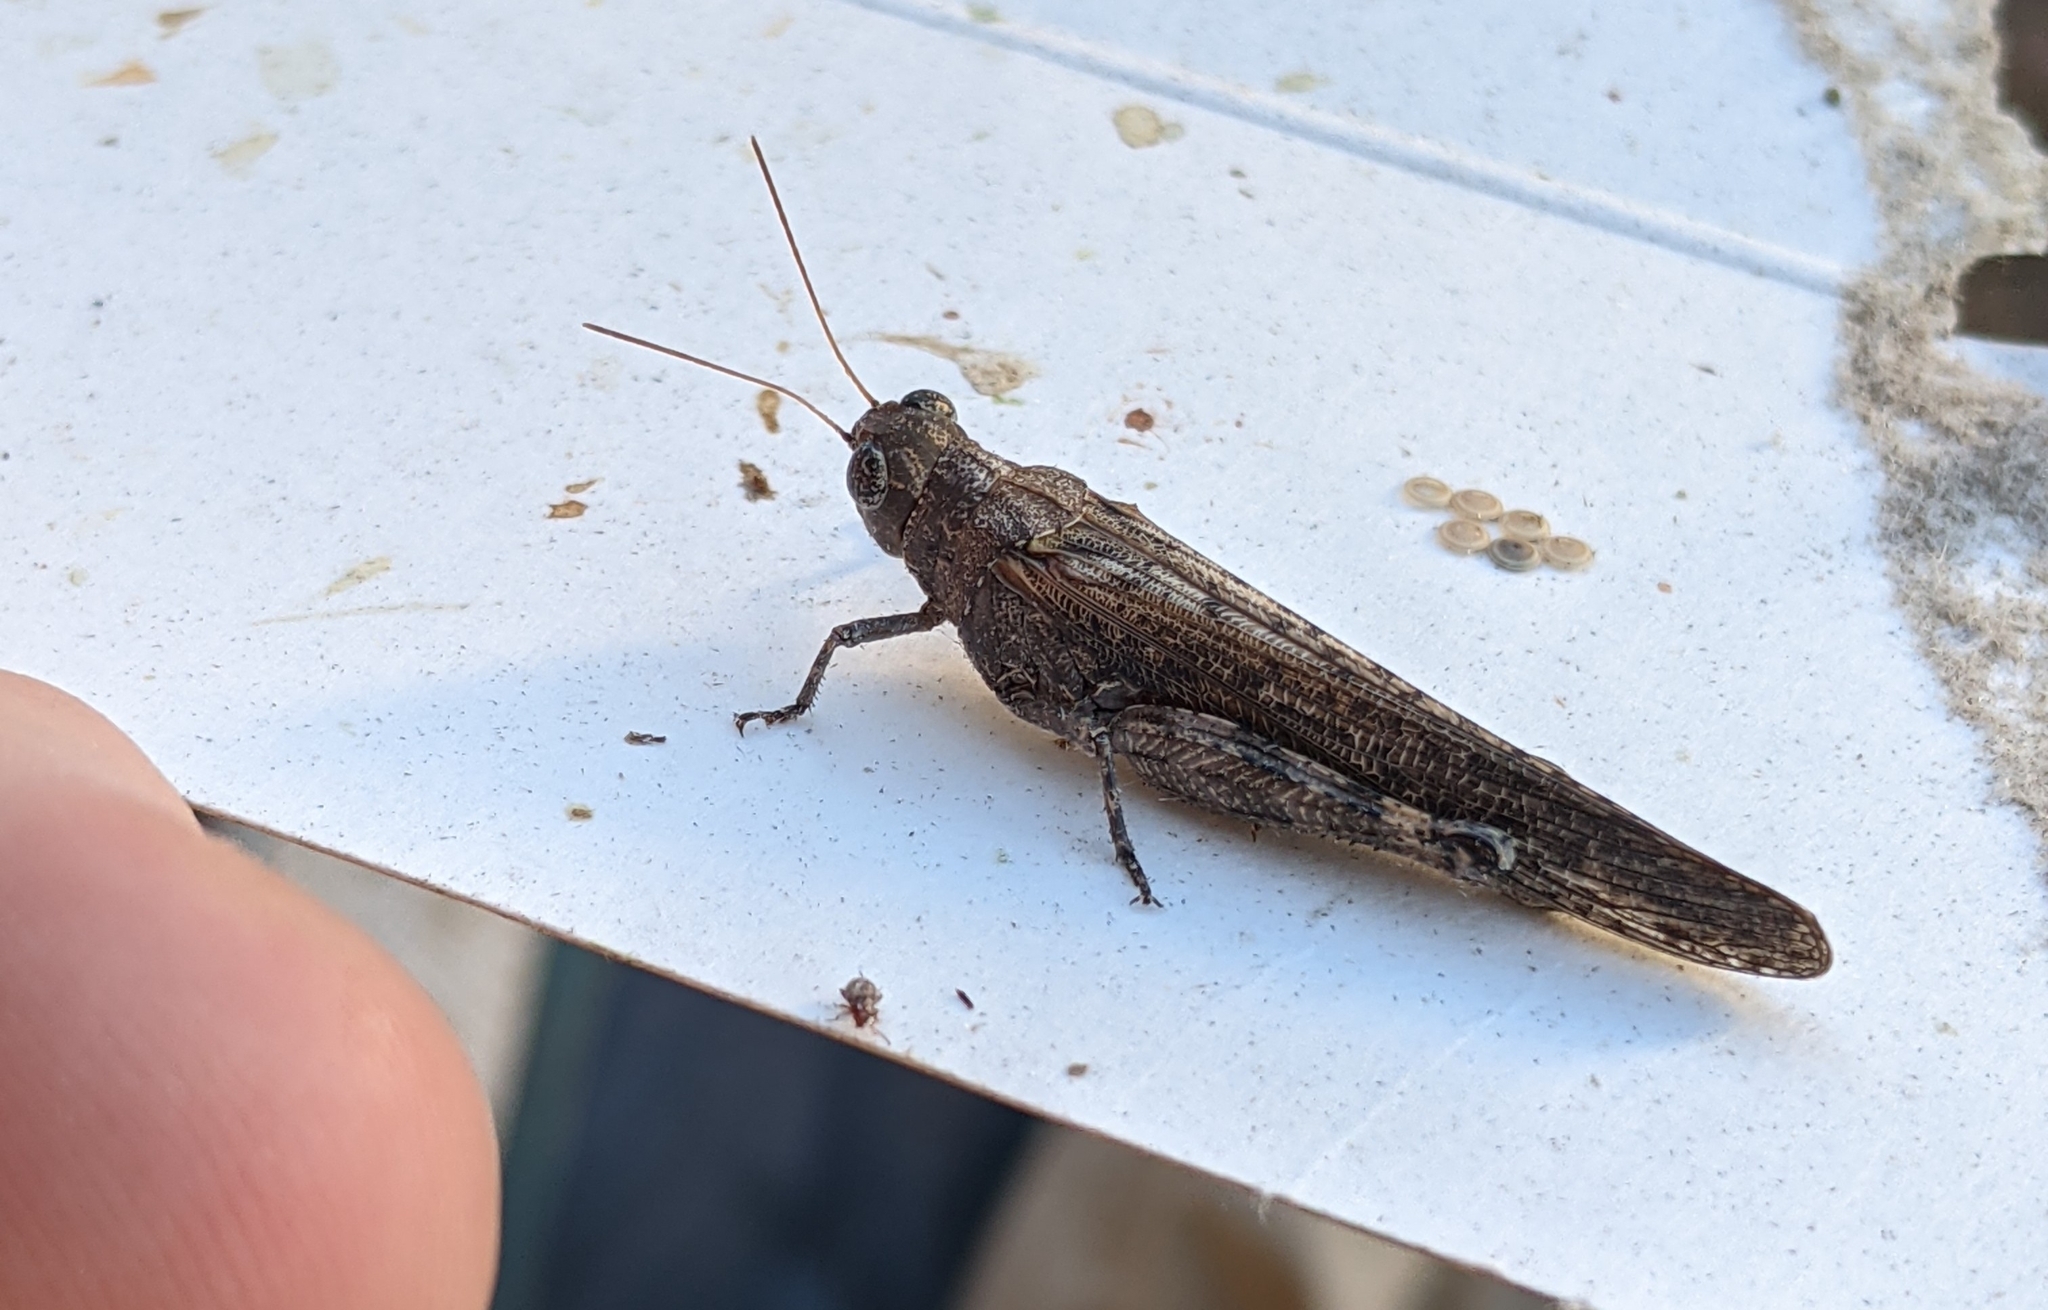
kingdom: Animalia
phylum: Arthropoda
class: Insecta
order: Orthoptera
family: Acrididae
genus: Ligurotettix
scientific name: Ligurotettix planum
